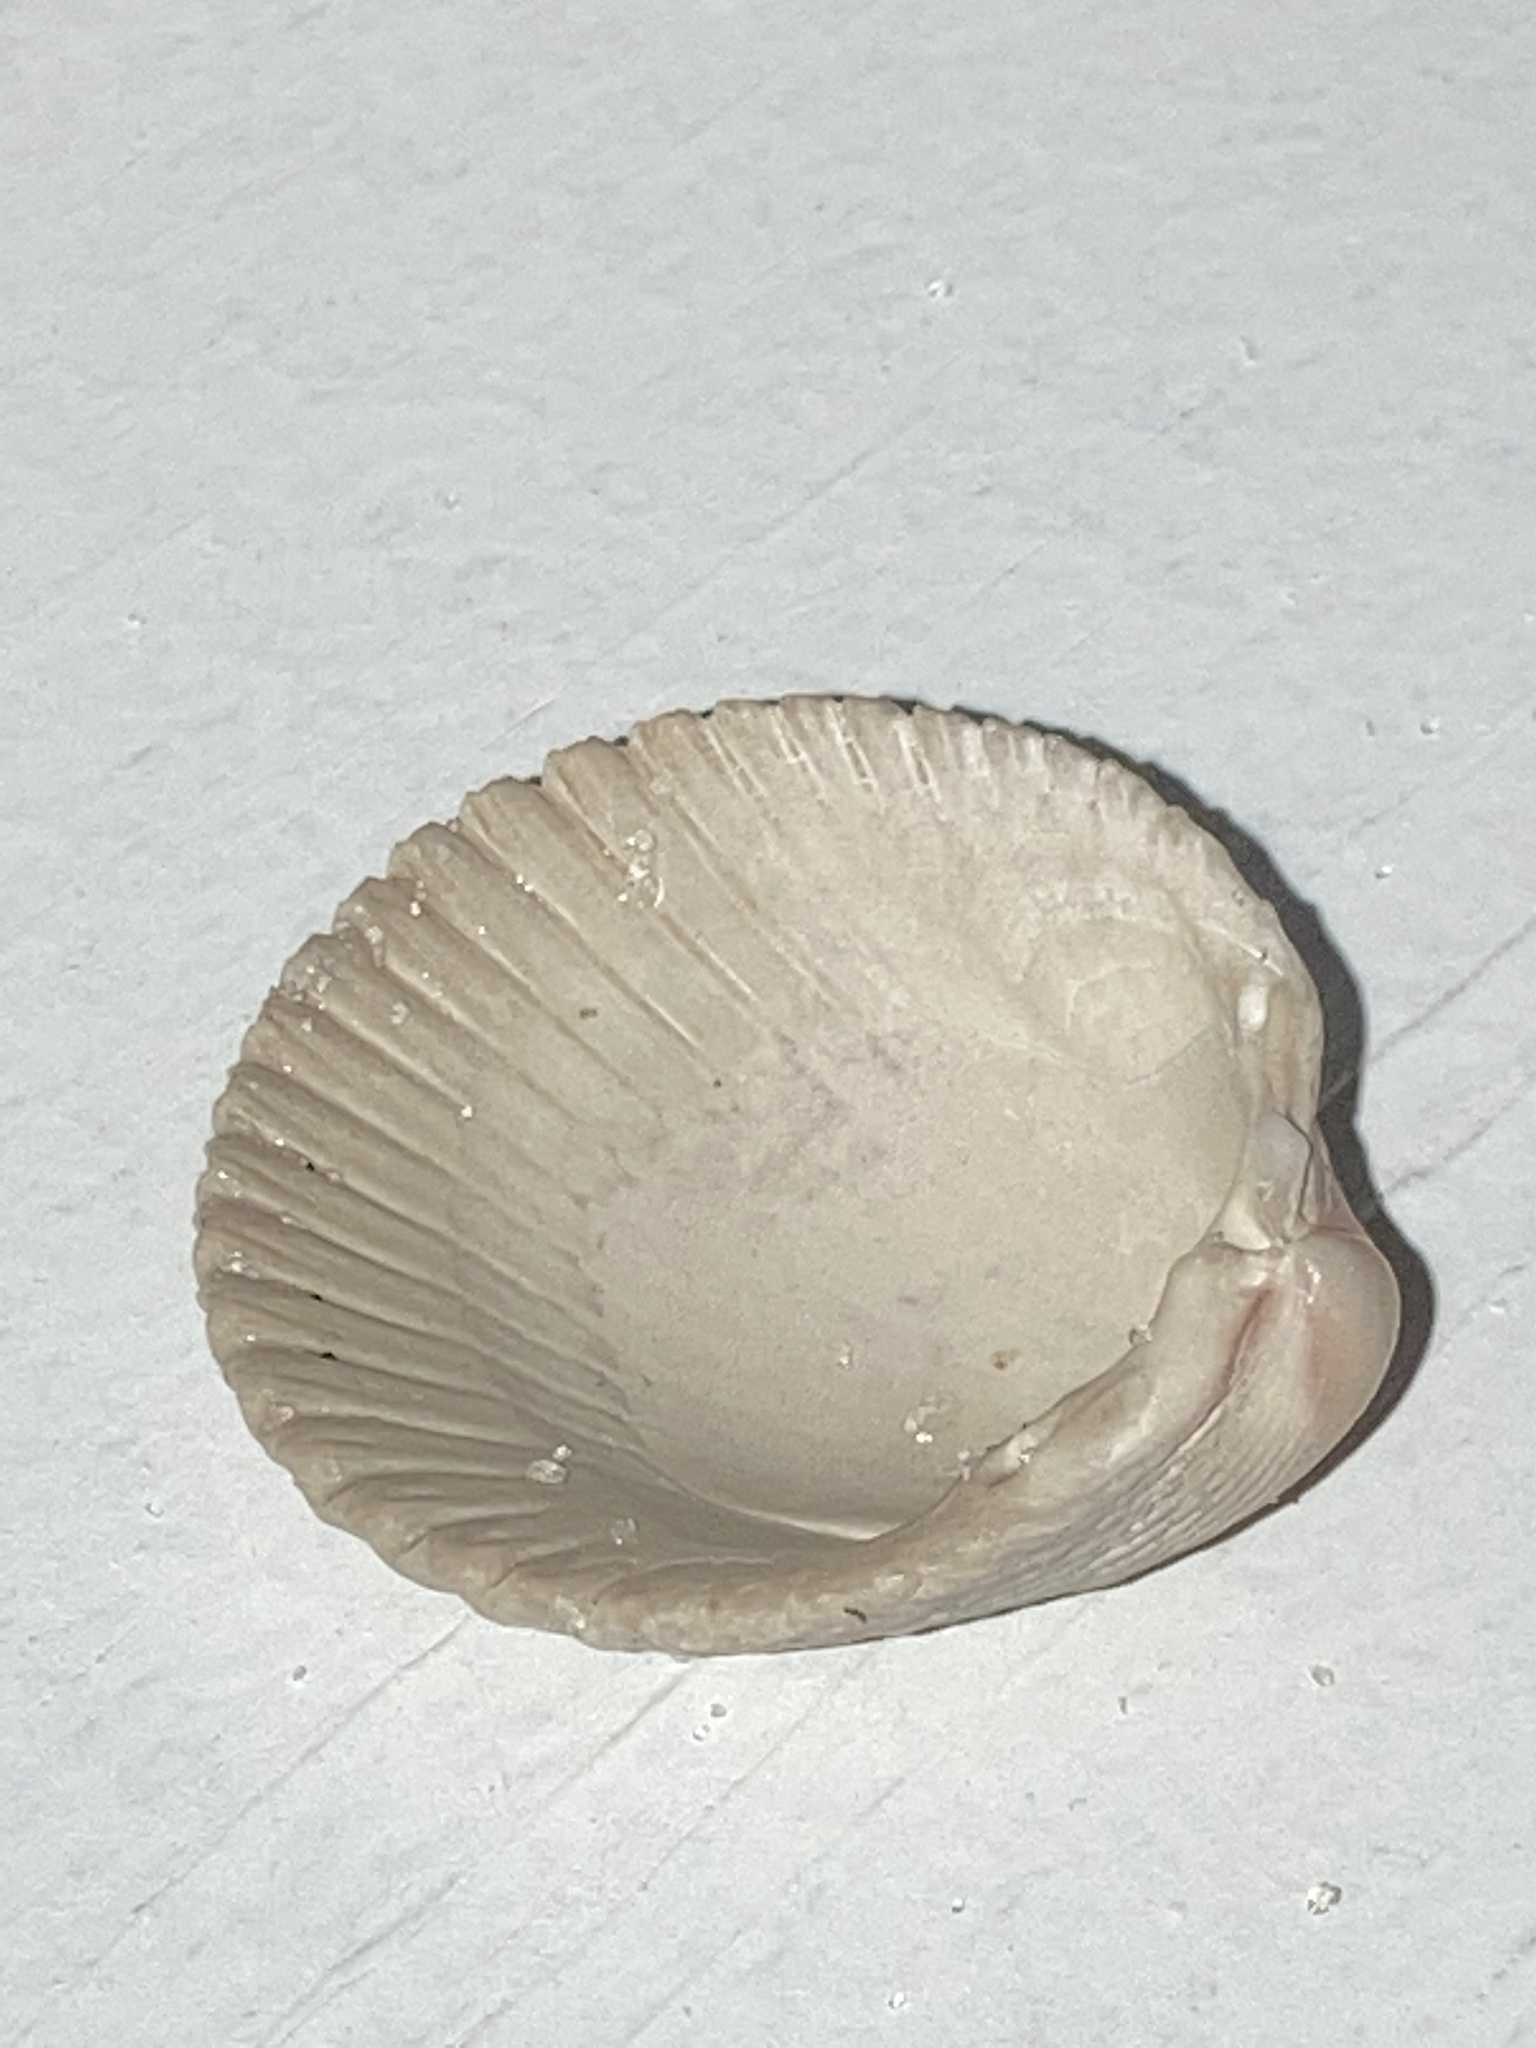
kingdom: Animalia
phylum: Mollusca
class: Bivalvia
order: Cardiida
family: Cardiidae
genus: Trachycardium
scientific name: Trachycardium egmontianum
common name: Florida pricklycockle
